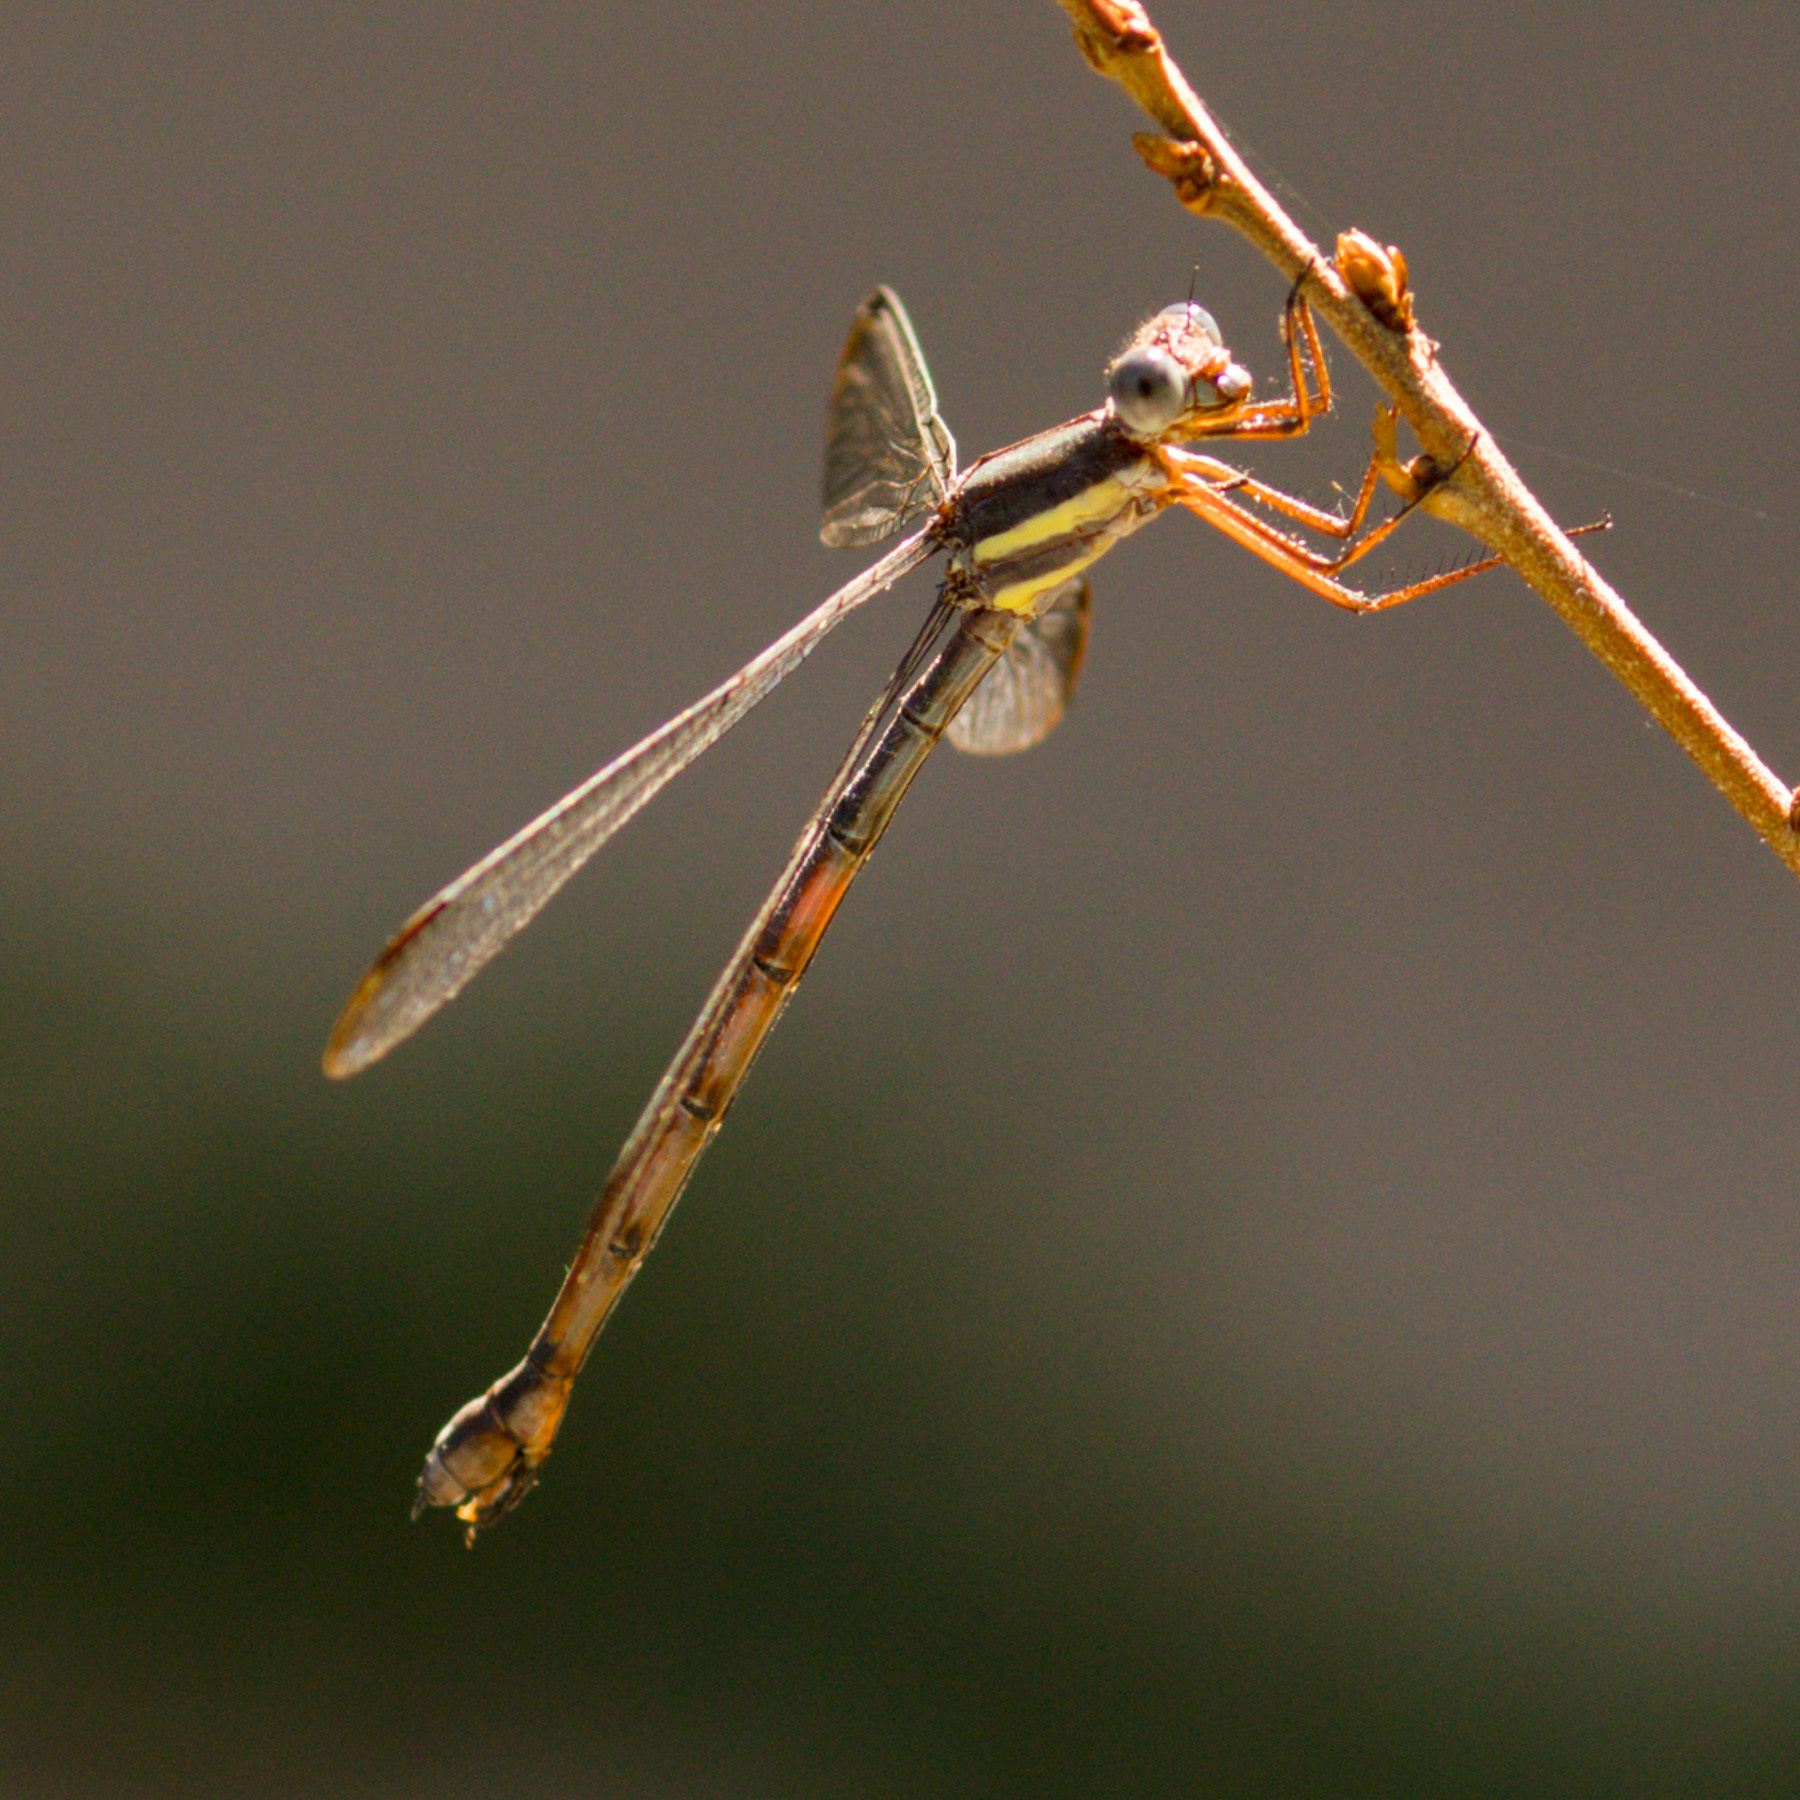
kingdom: Animalia
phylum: Arthropoda
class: Insecta
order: Odonata
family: Lestidae
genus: Archilestes
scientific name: Archilestes grandis
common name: Great spreadwing
